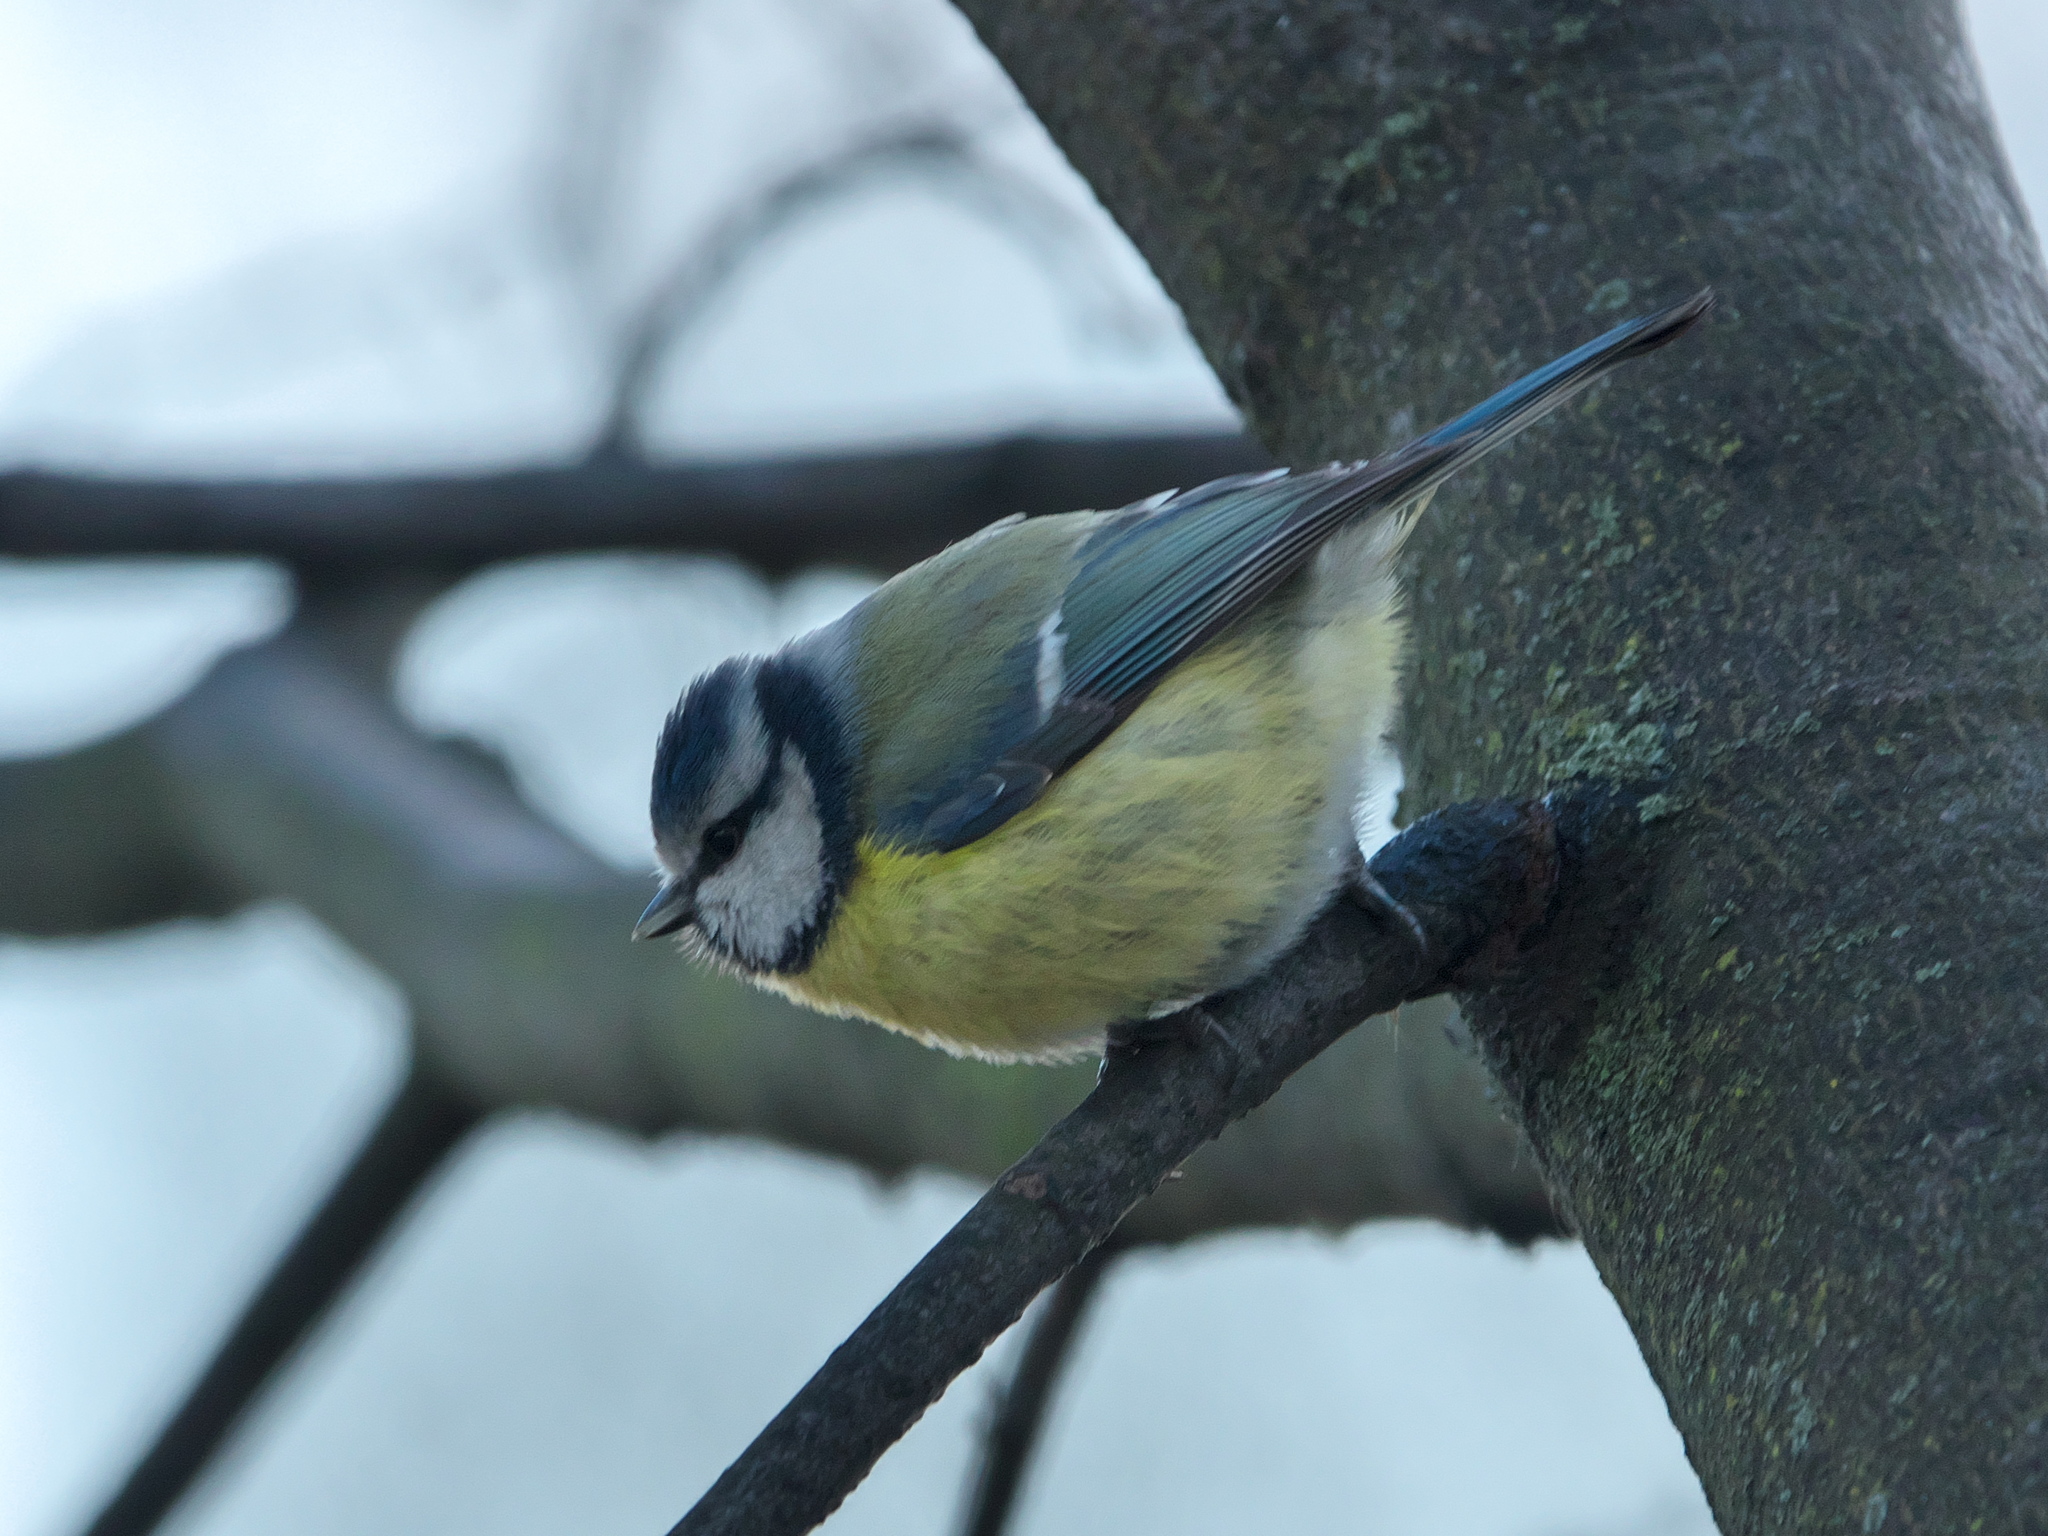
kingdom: Animalia
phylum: Chordata
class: Aves
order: Passeriformes
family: Paridae
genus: Cyanistes
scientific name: Cyanistes caeruleus
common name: Eurasian blue tit
